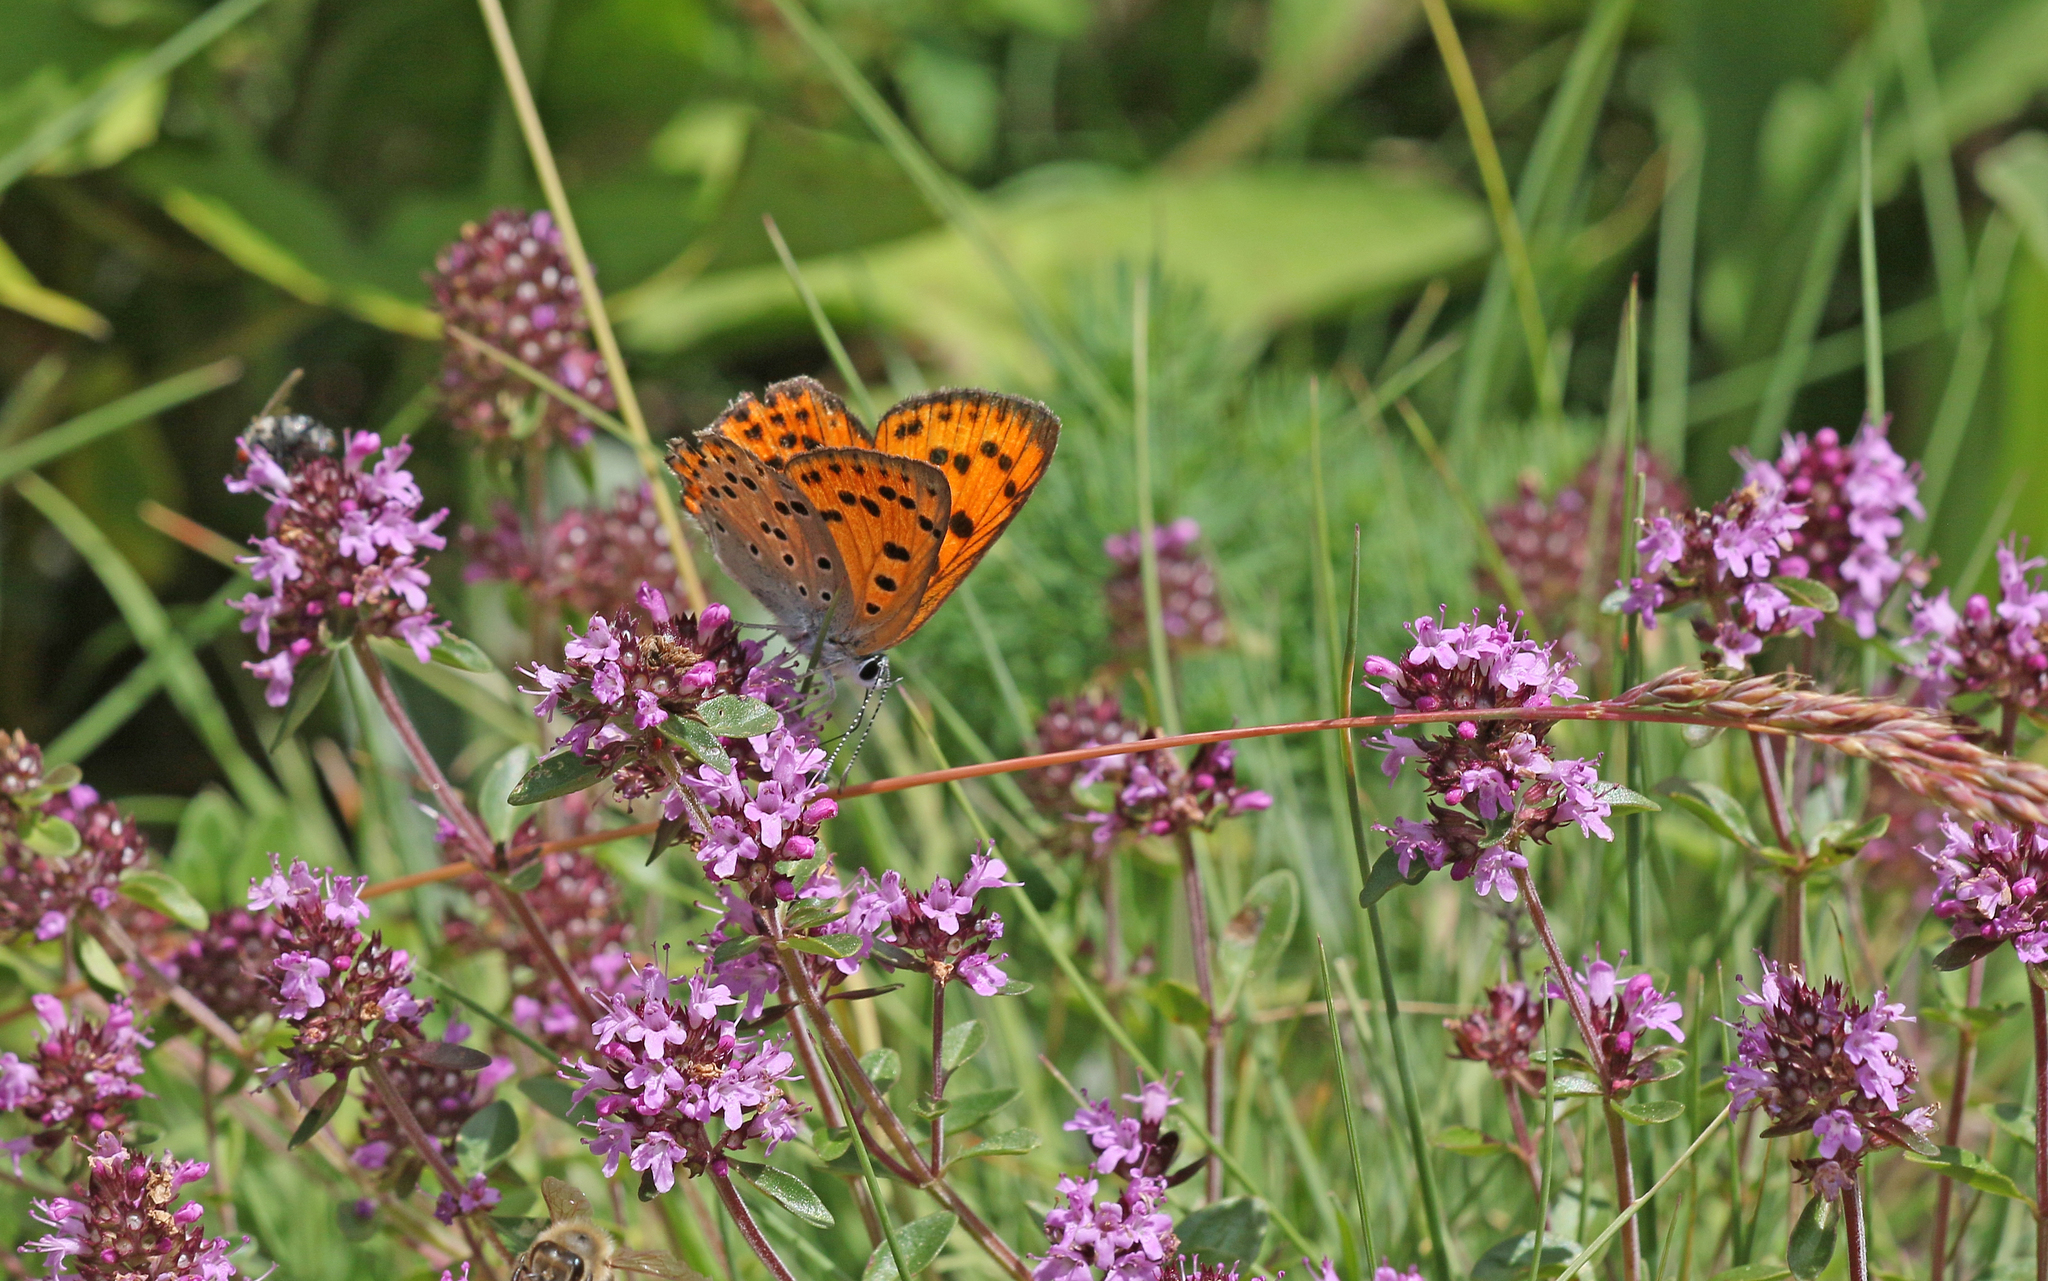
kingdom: Animalia
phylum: Arthropoda
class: Insecta
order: Lepidoptera
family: Lycaenidae
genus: Lycaena
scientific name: Lycaena alciphron
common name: Purple-shot copper
